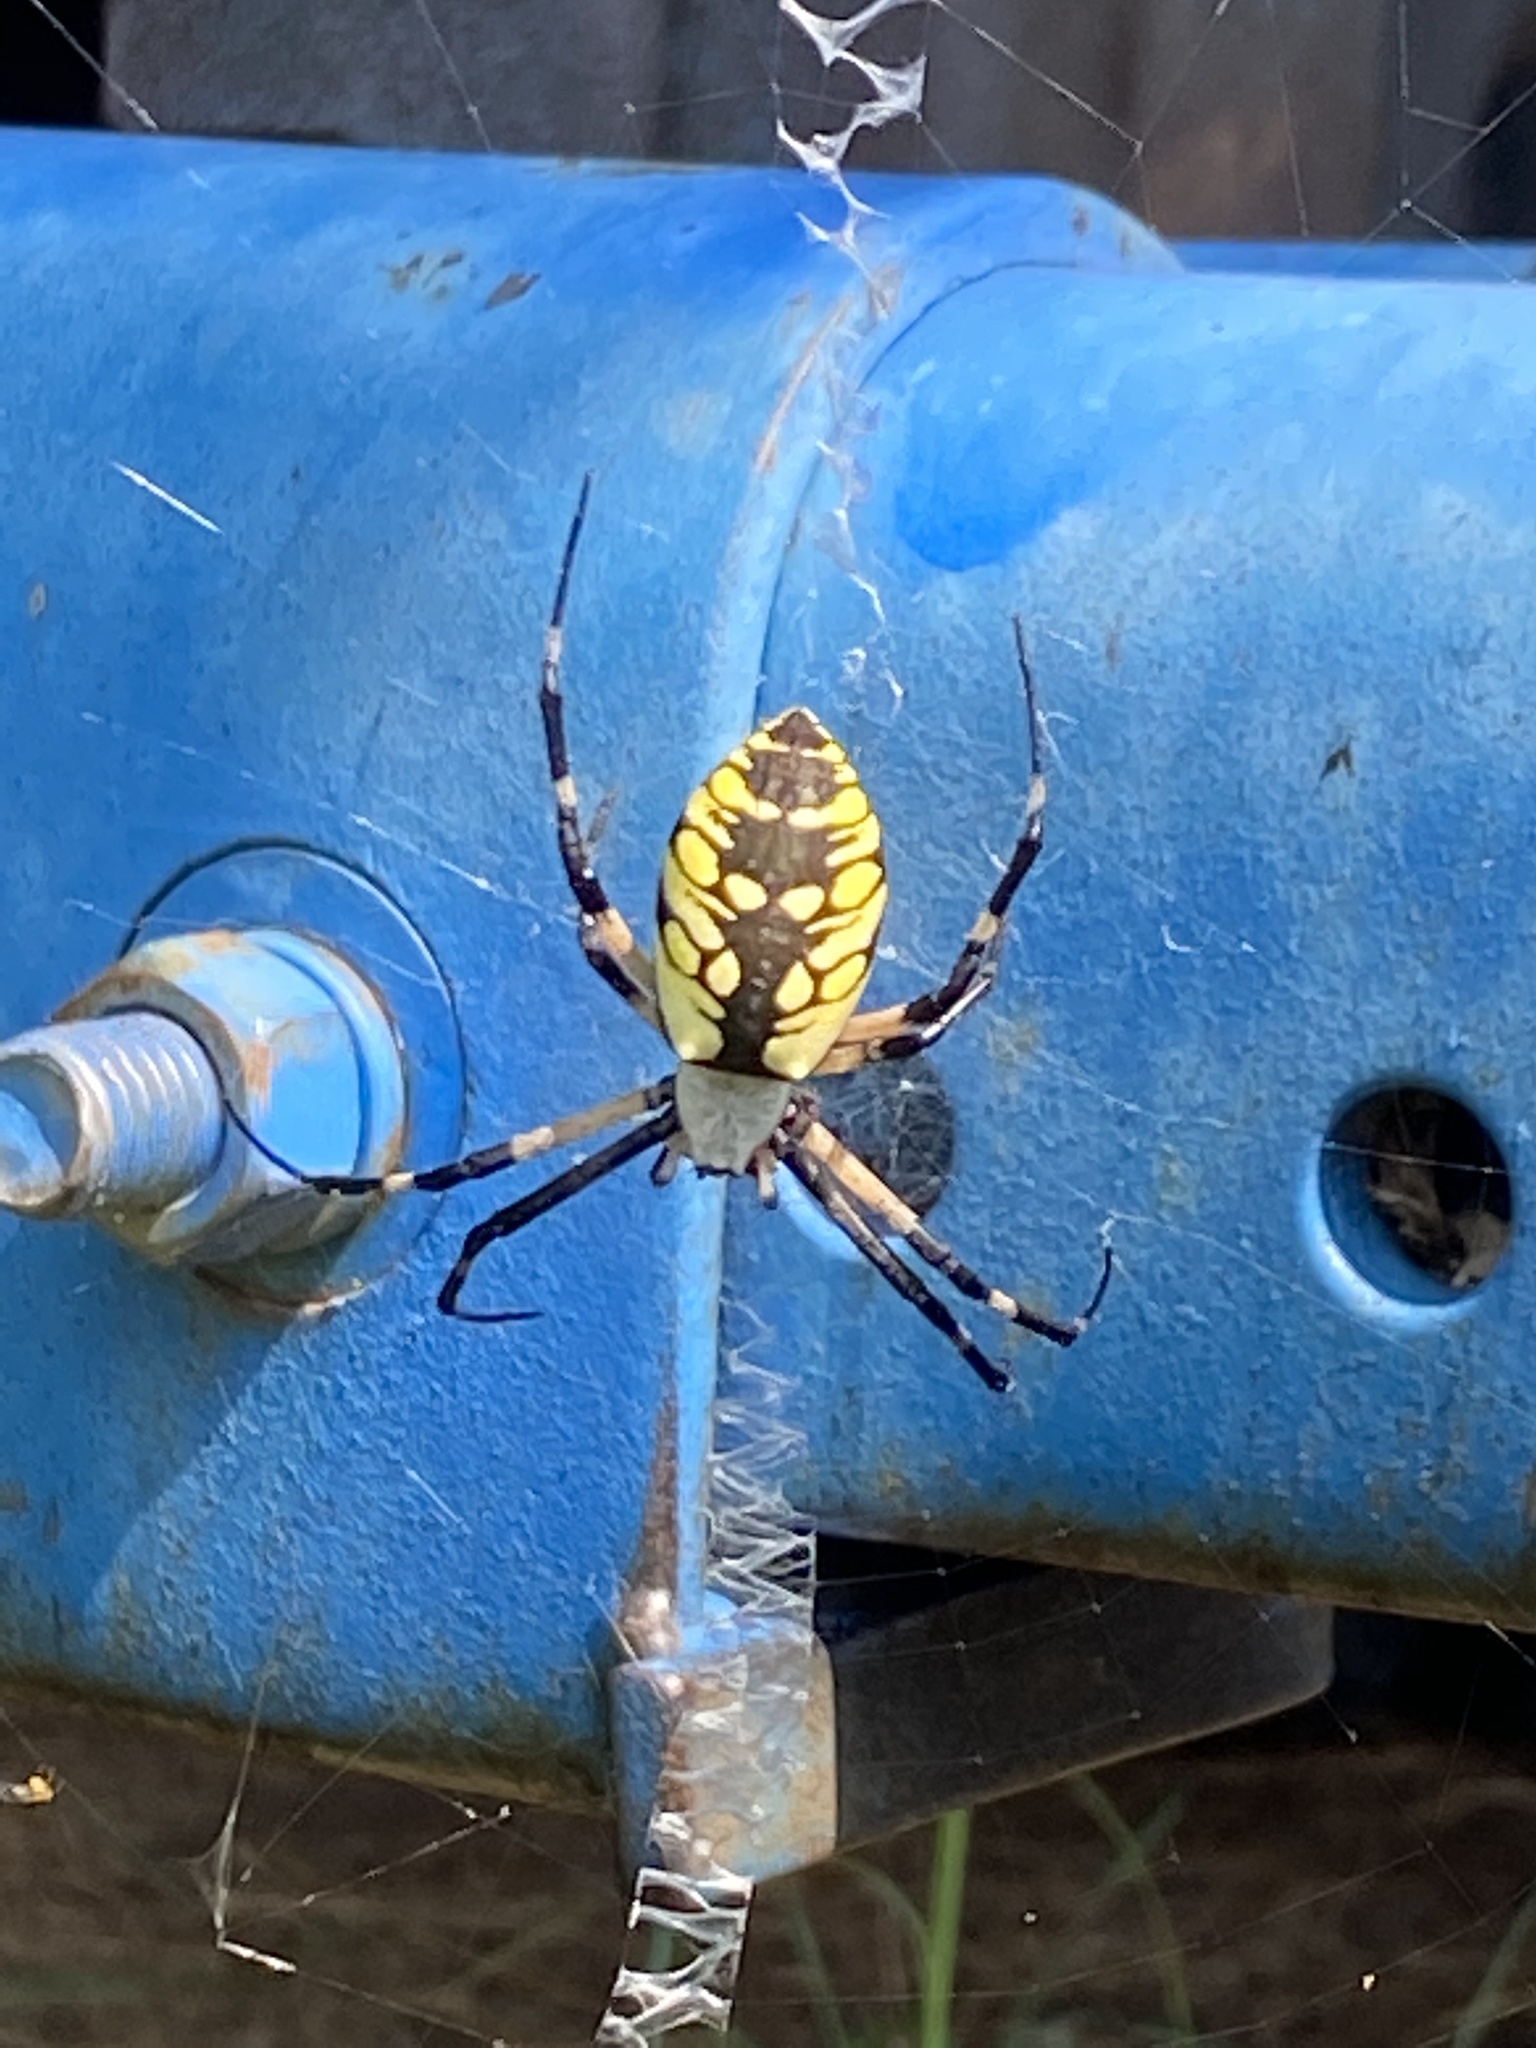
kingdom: Animalia
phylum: Arthropoda
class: Arachnida
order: Araneae
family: Araneidae
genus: Argiope
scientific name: Argiope aurantia
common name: Orb weavers
